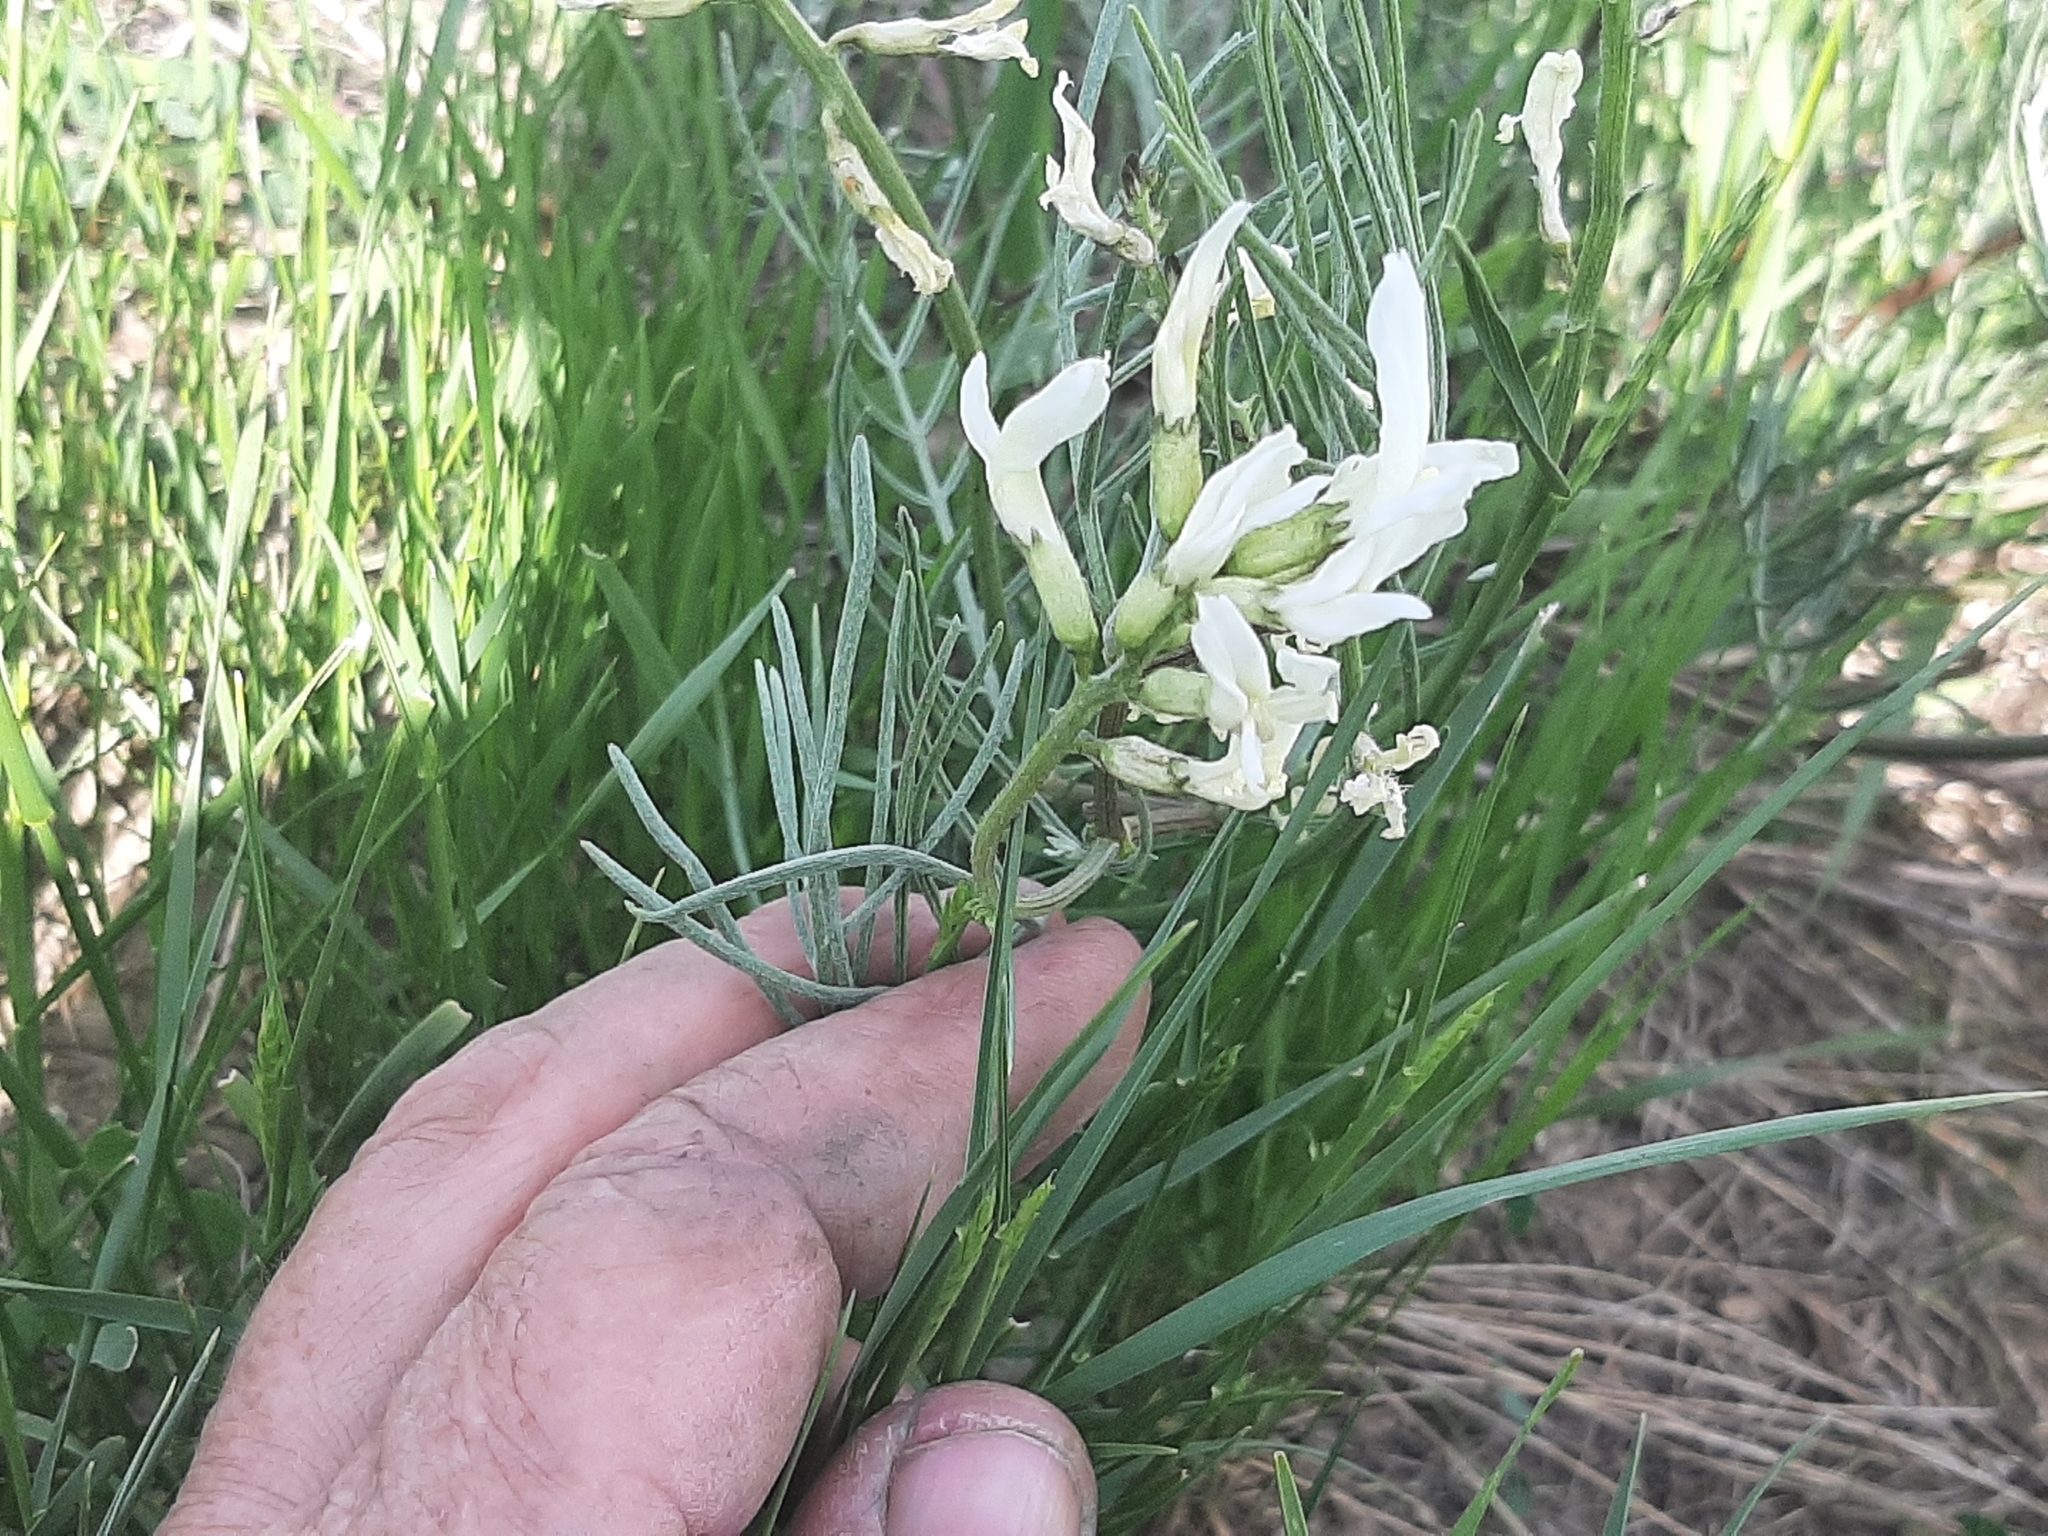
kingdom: Plantae
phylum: Tracheophyta
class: Magnoliopsida
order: Fabales
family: Fabaceae
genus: Astragalus
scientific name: Astragalus pectinatus
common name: Tine-leaf milk-vetch
